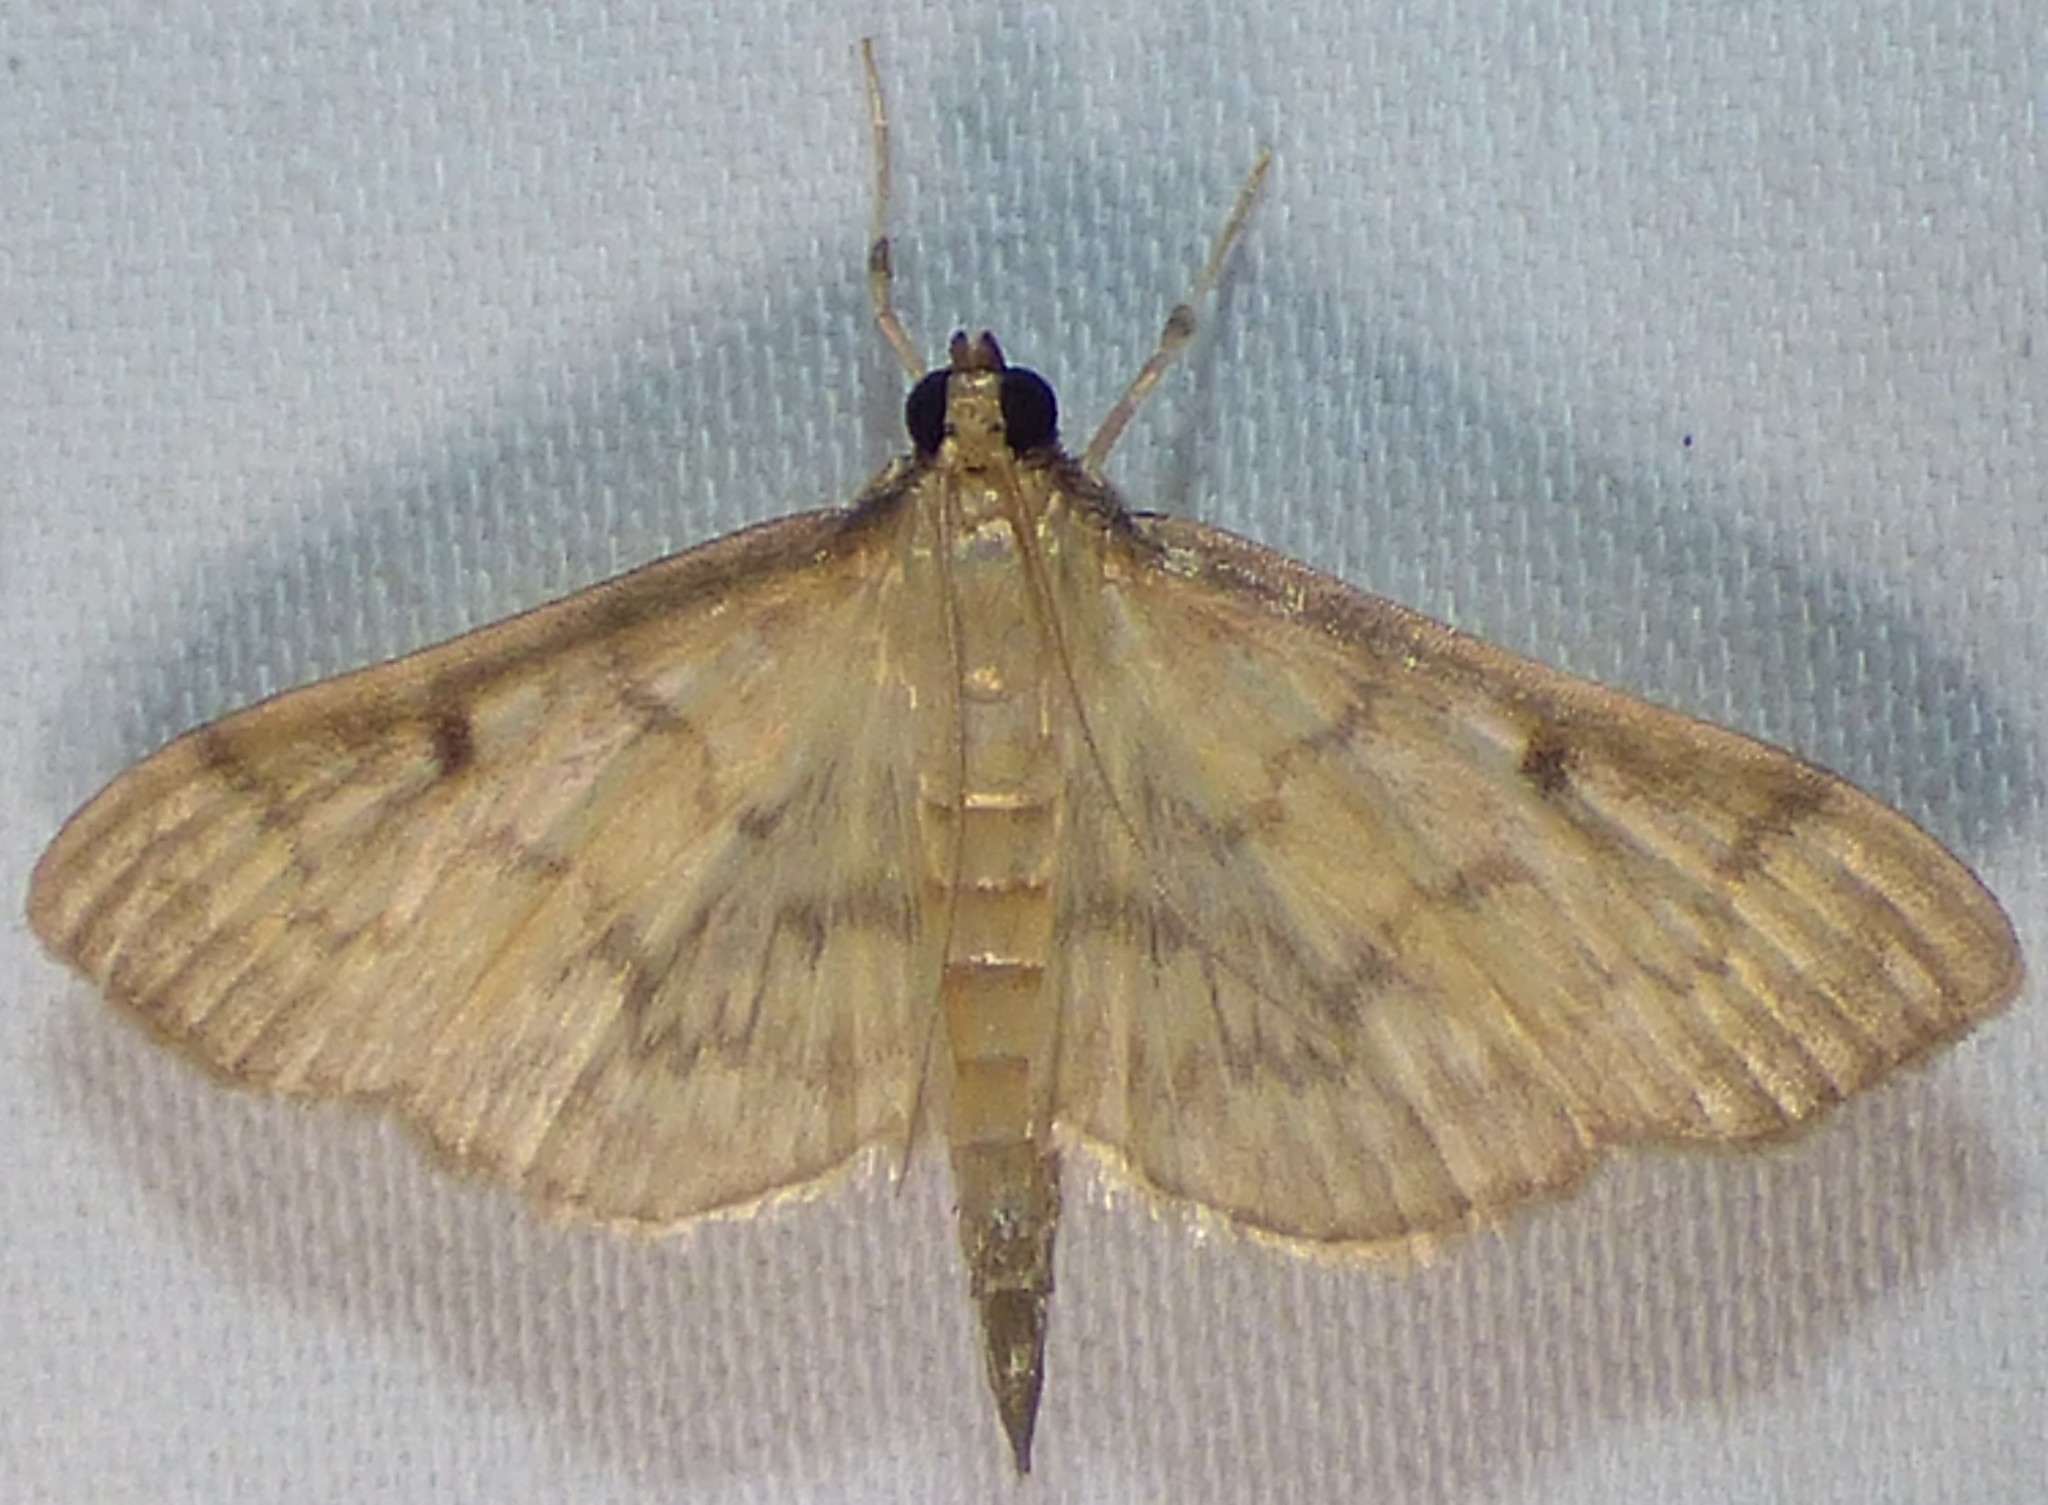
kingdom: Animalia
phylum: Arthropoda
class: Insecta
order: Lepidoptera
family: Crambidae
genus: Herpetogramma
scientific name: Herpetogramma fluctuosalis
